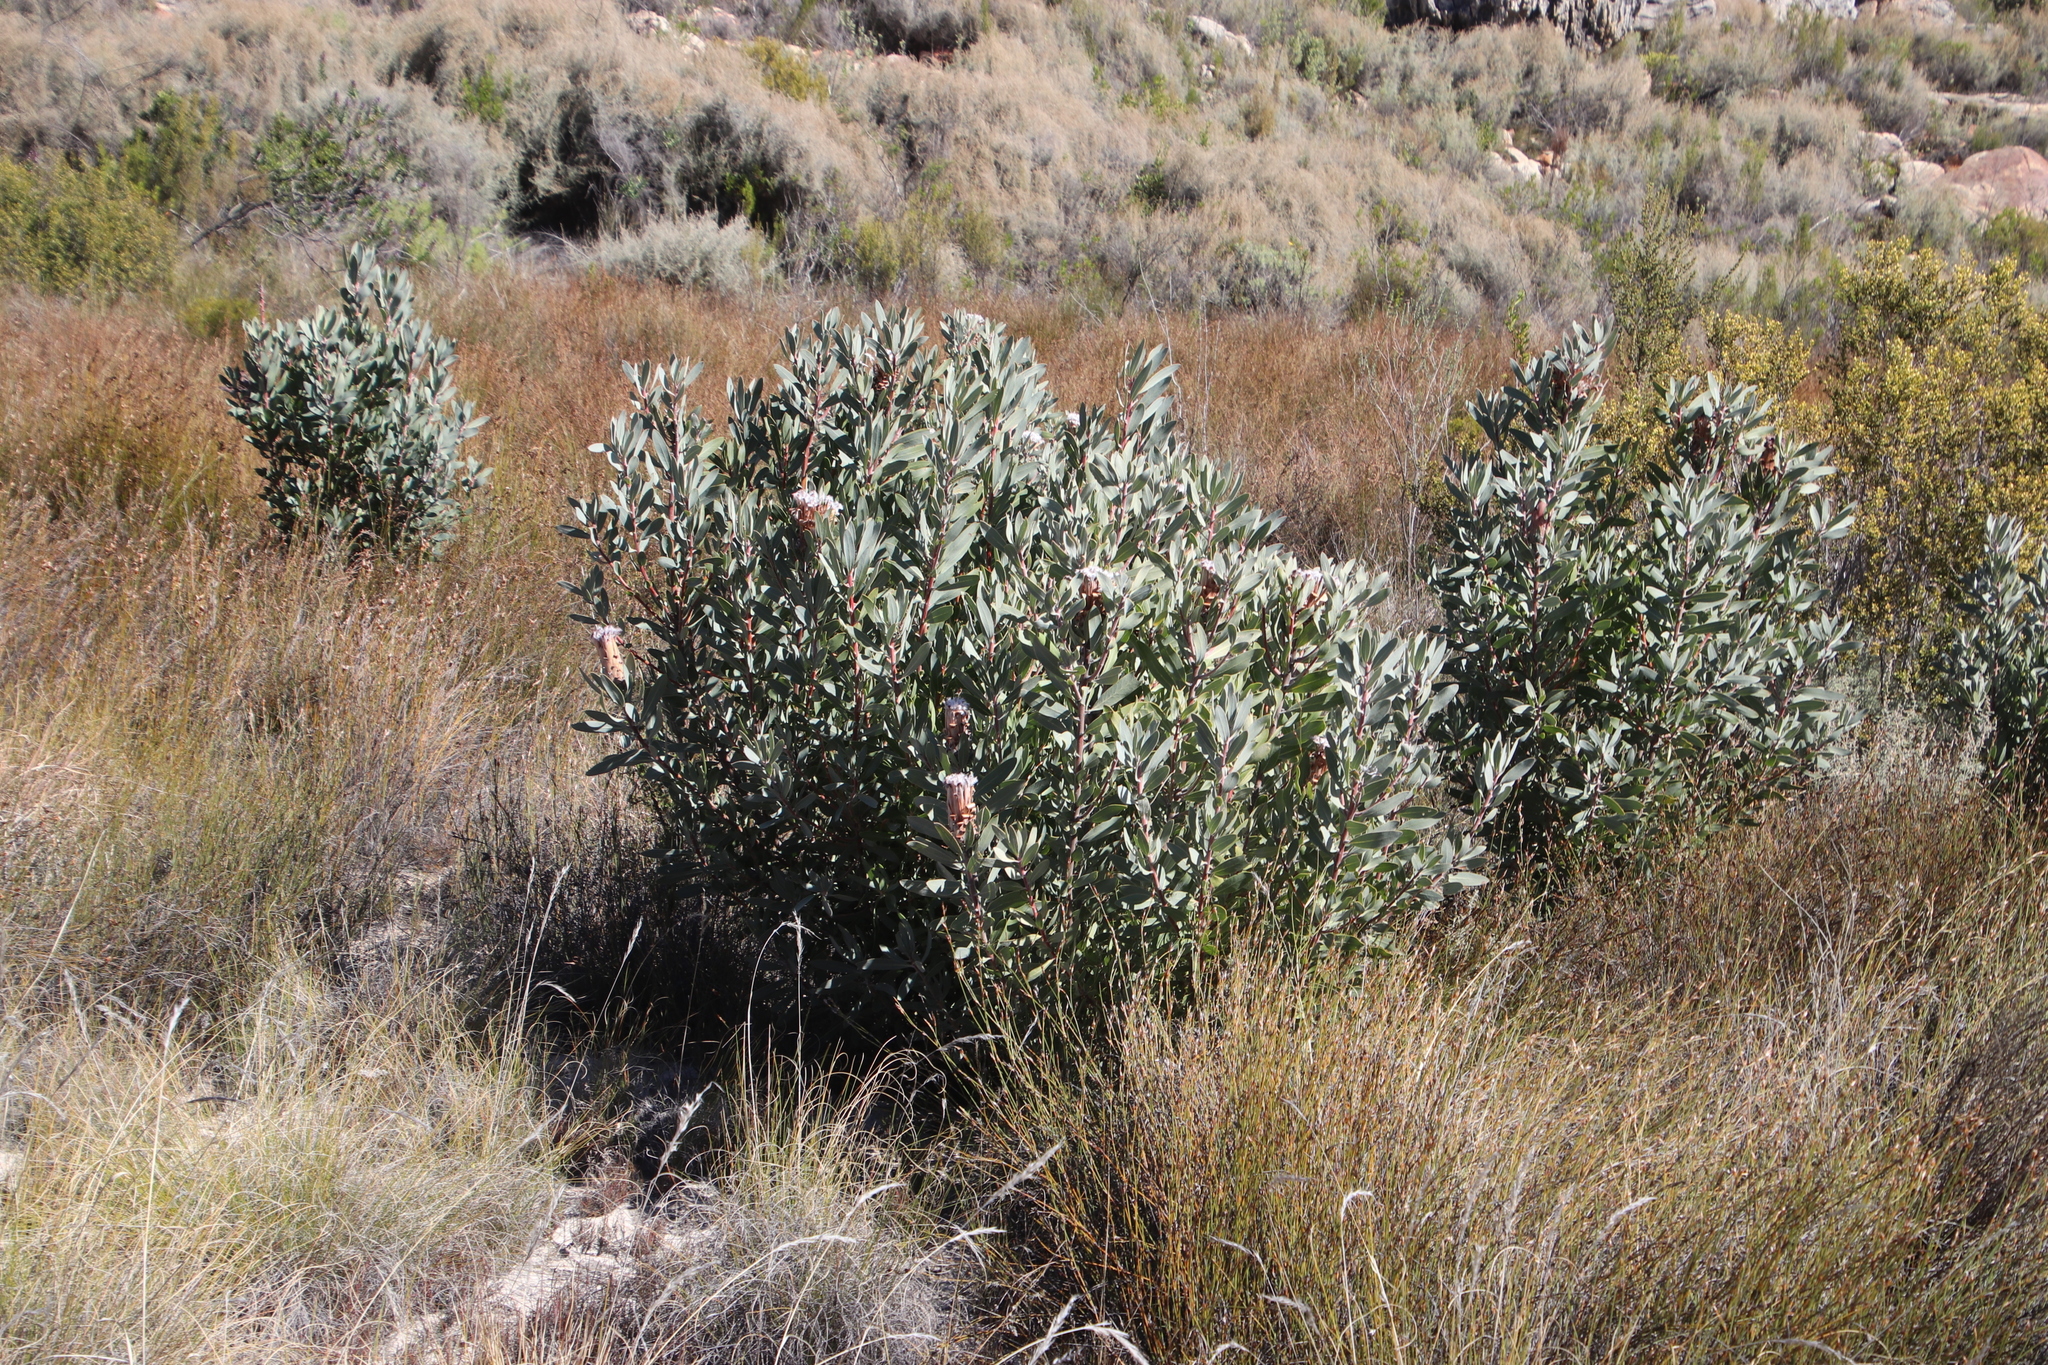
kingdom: Plantae
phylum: Tracheophyta
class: Magnoliopsida
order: Proteales
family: Proteaceae
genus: Protea
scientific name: Protea laurifolia
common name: Grey-leaf sugarbsh
